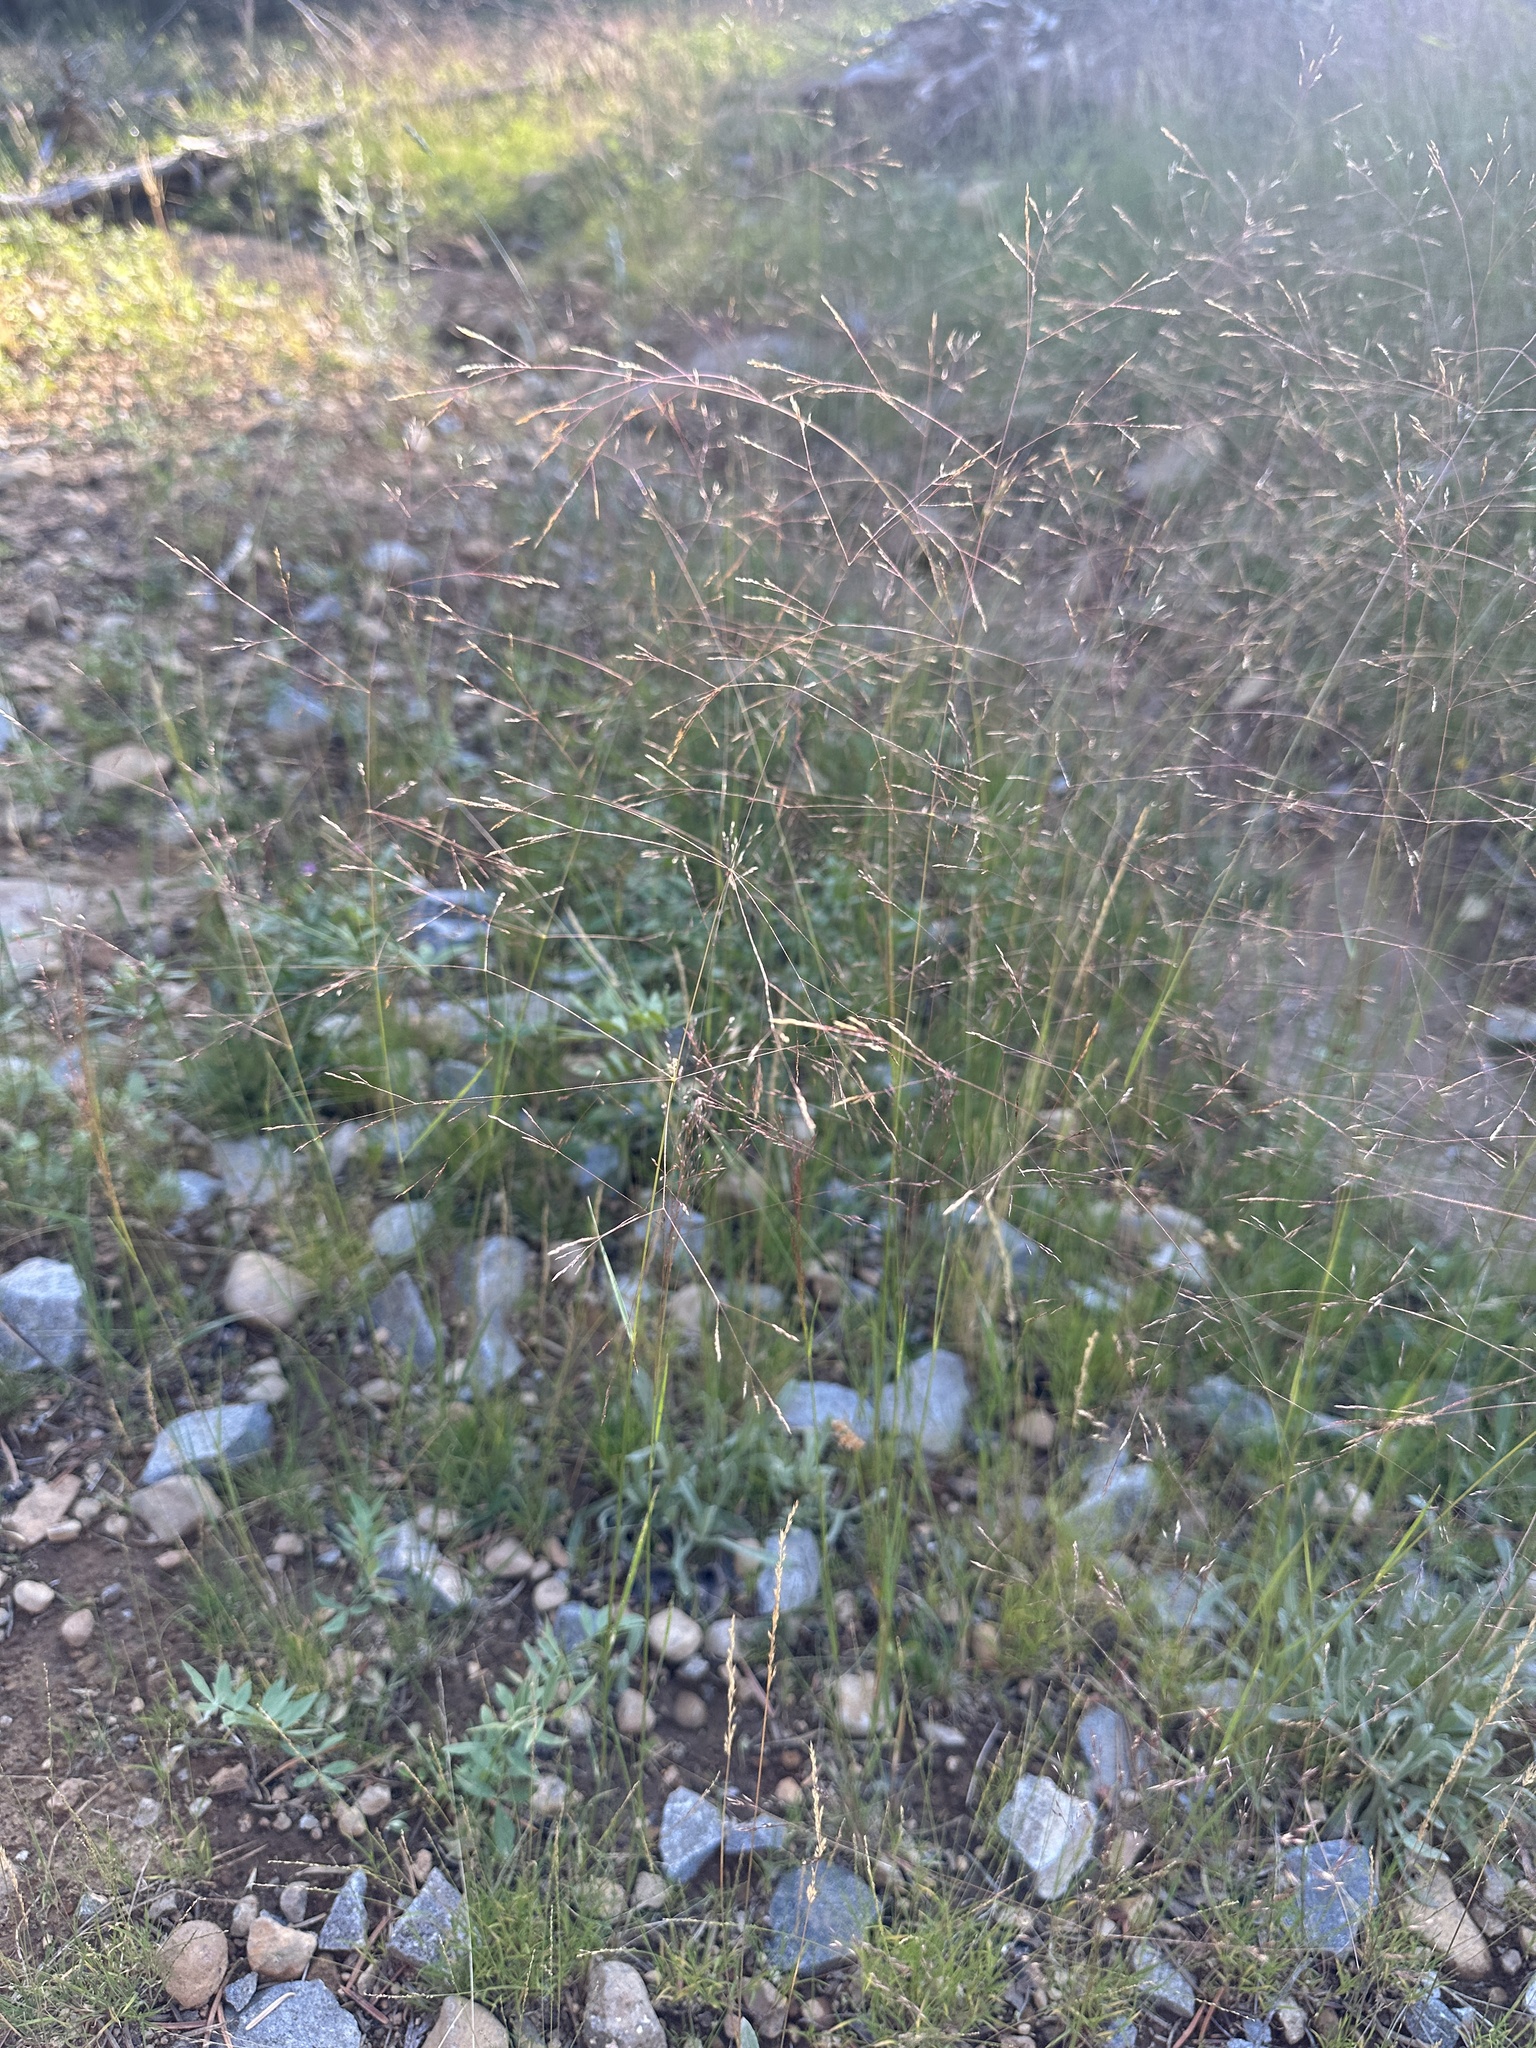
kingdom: Plantae
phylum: Tracheophyta
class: Liliopsida
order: Poales
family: Poaceae
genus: Agrostis
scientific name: Agrostis scabra
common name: Rough bent
